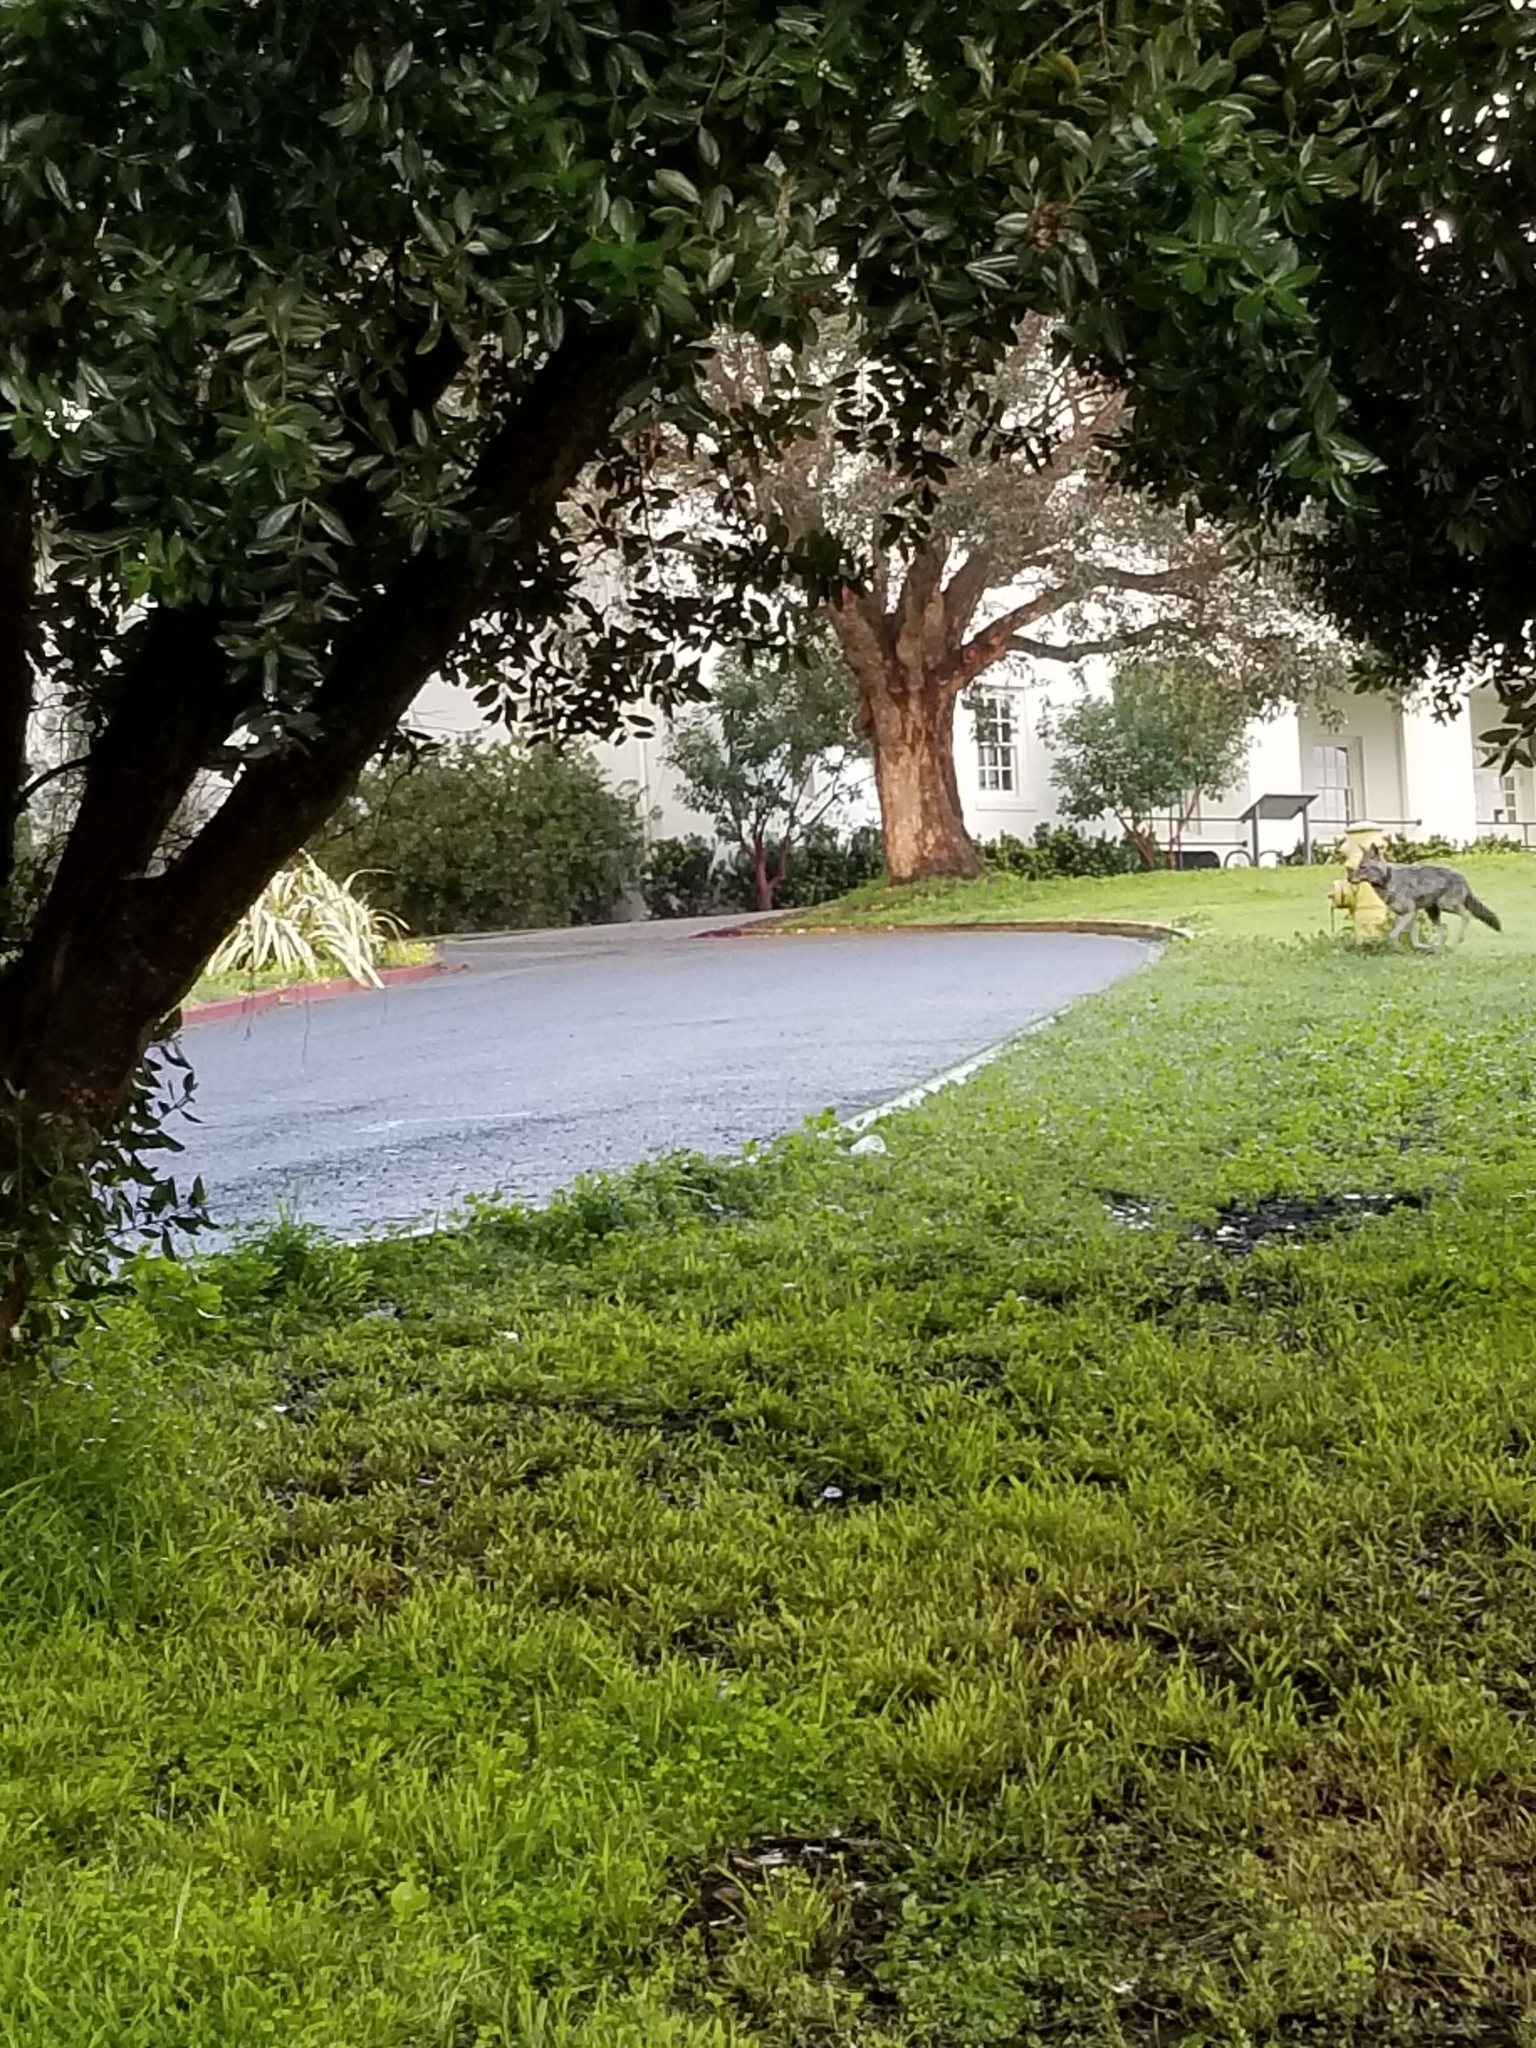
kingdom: Animalia
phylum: Chordata
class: Mammalia
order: Carnivora
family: Canidae
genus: Canis
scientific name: Canis latrans
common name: Coyote
